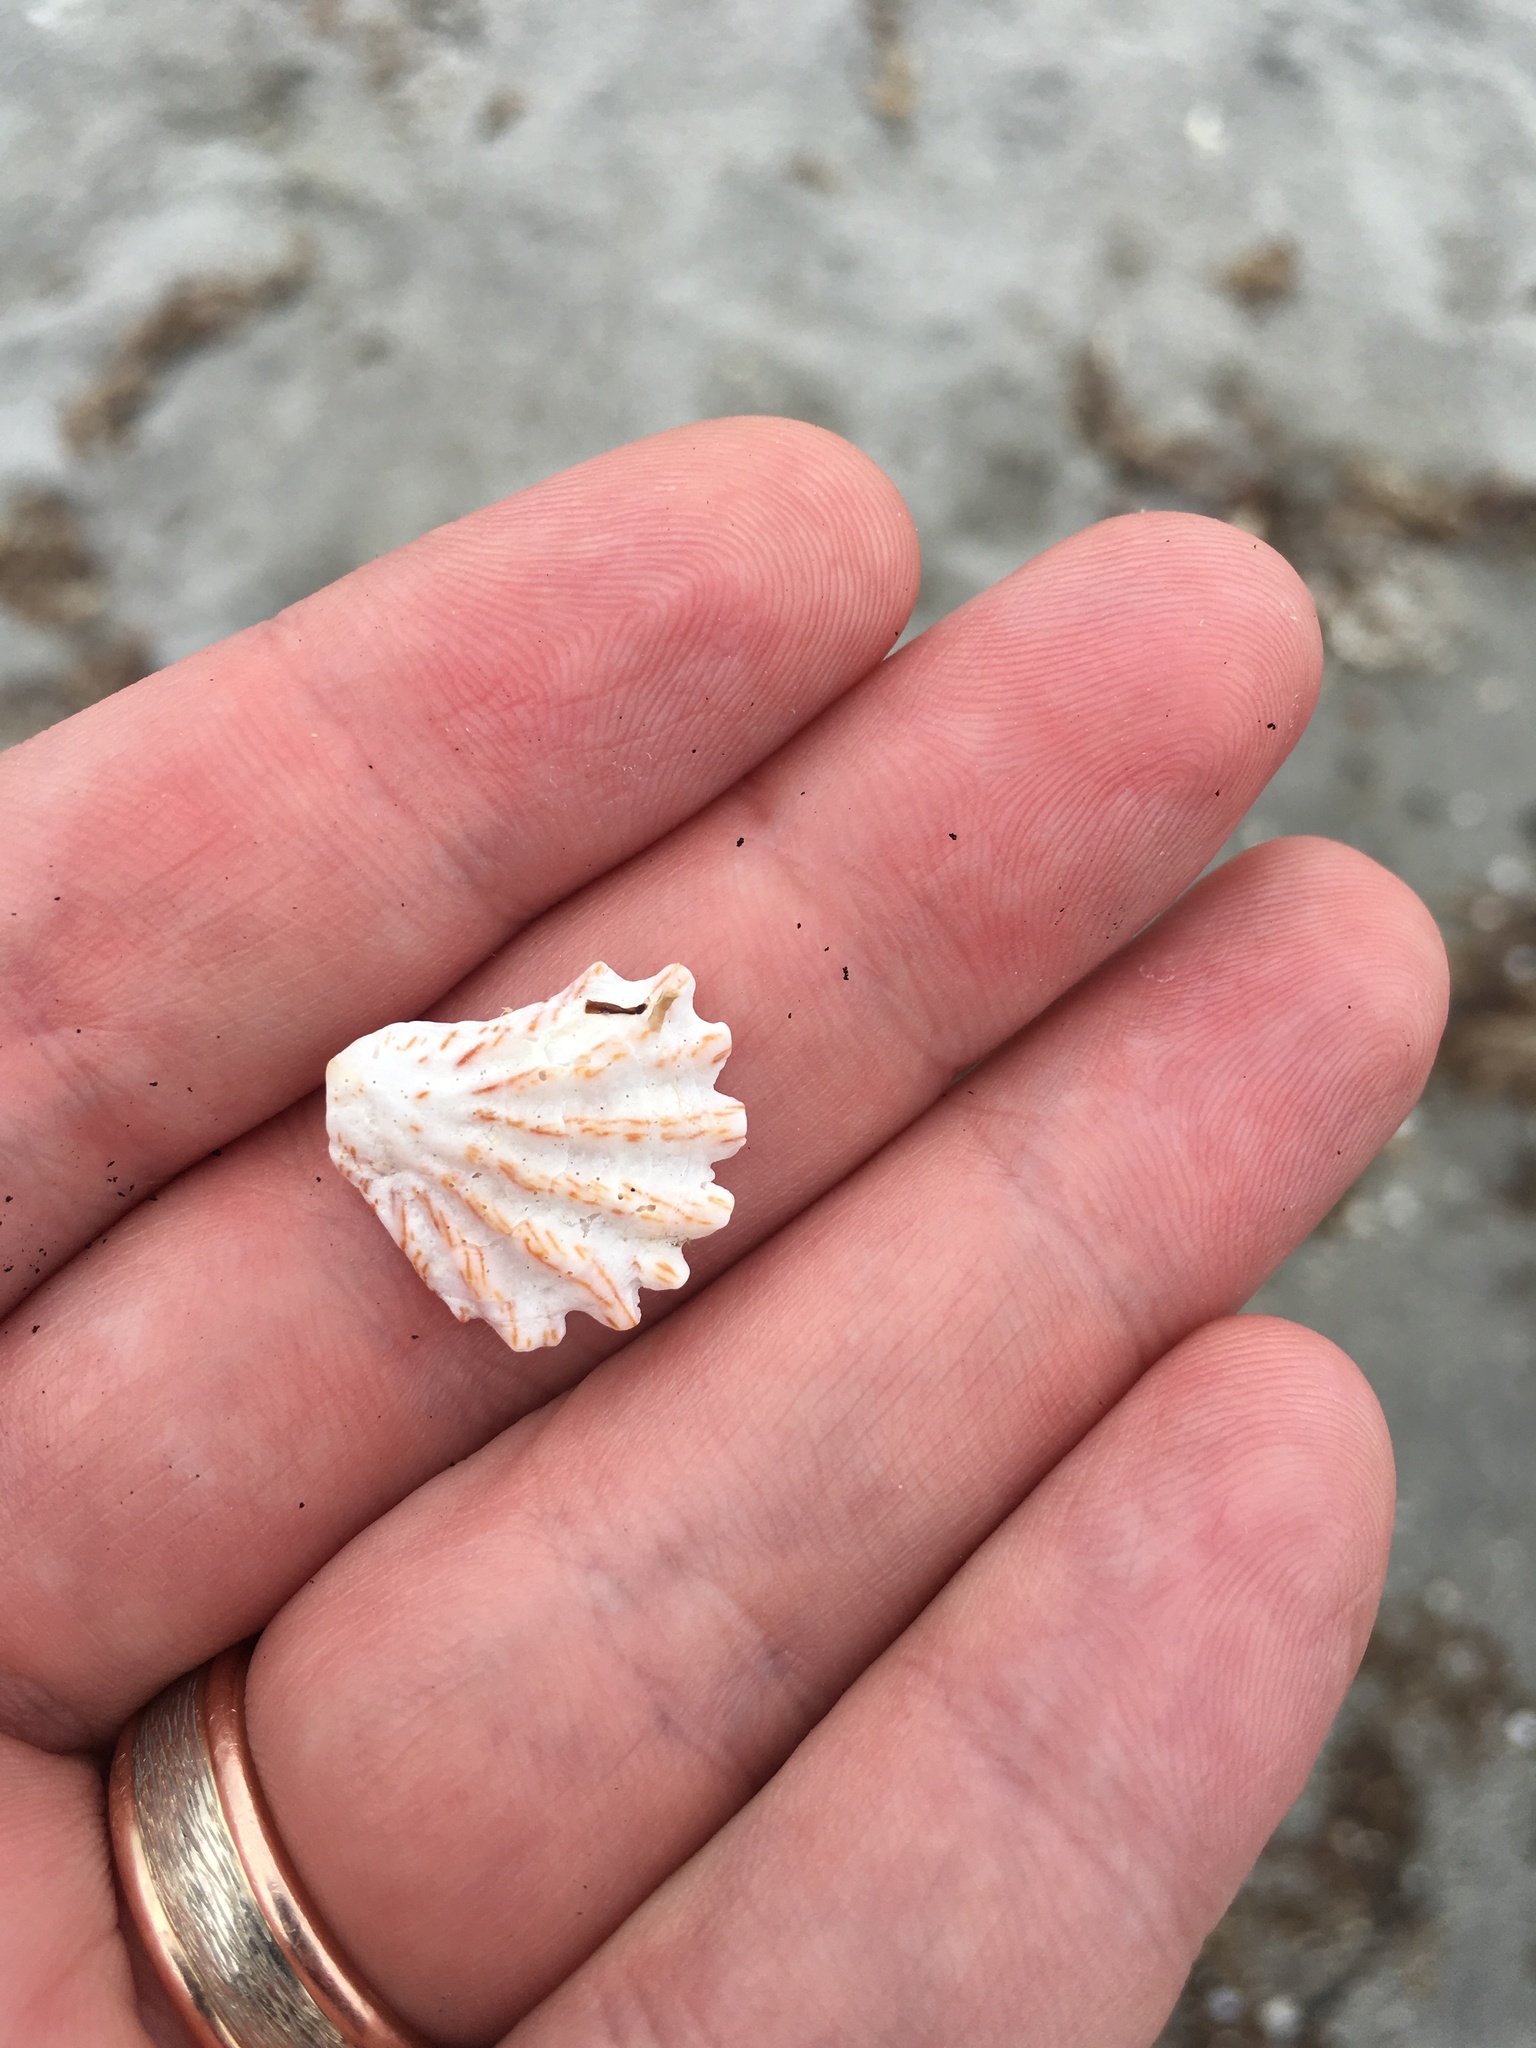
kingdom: Animalia
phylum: Mollusca
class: Bivalvia
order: Pectinida
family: Plicatulidae
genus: Plicatula
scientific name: Plicatula gibbosa
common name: Atlantic kitten's paw
